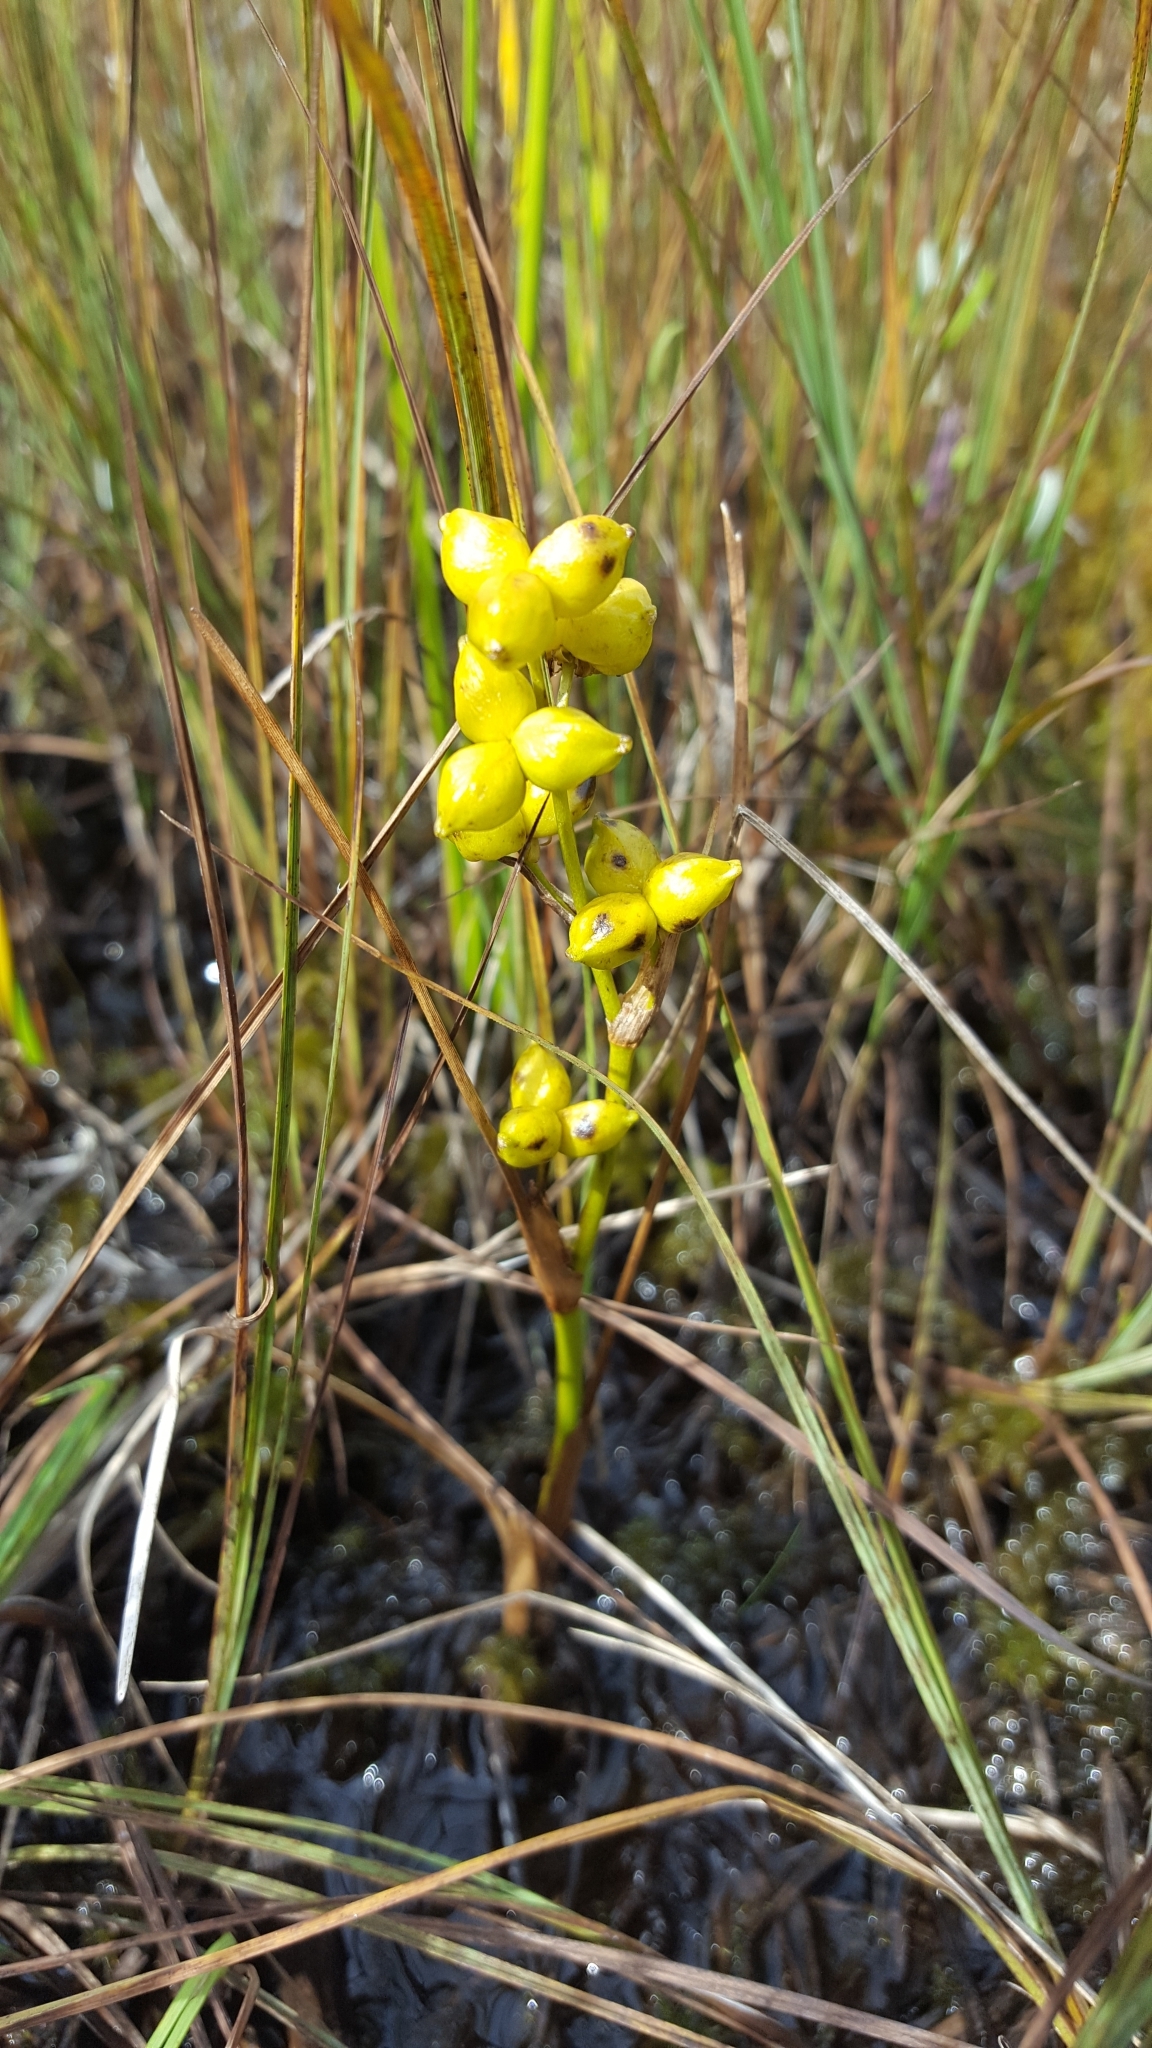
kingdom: Plantae
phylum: Tracheophyta
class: Liliopsida
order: Alismatales
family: Scheuchzeriaceae
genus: Scheuchzeria
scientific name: Scheuchzeria palustris
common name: Rannoch-rush
